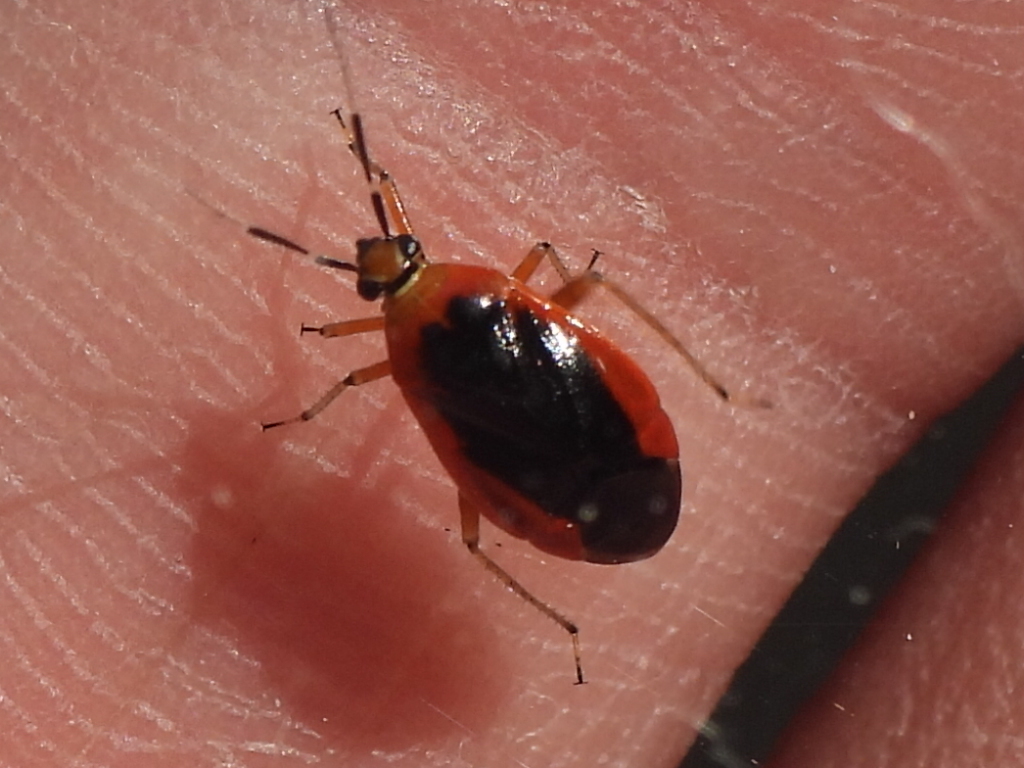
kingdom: Animalia
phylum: Arthropoda
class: Insecta
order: Hemiptera
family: Miridae
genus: Metriorrhynchomiris
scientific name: Metriorrhynchomiris dislocatus
